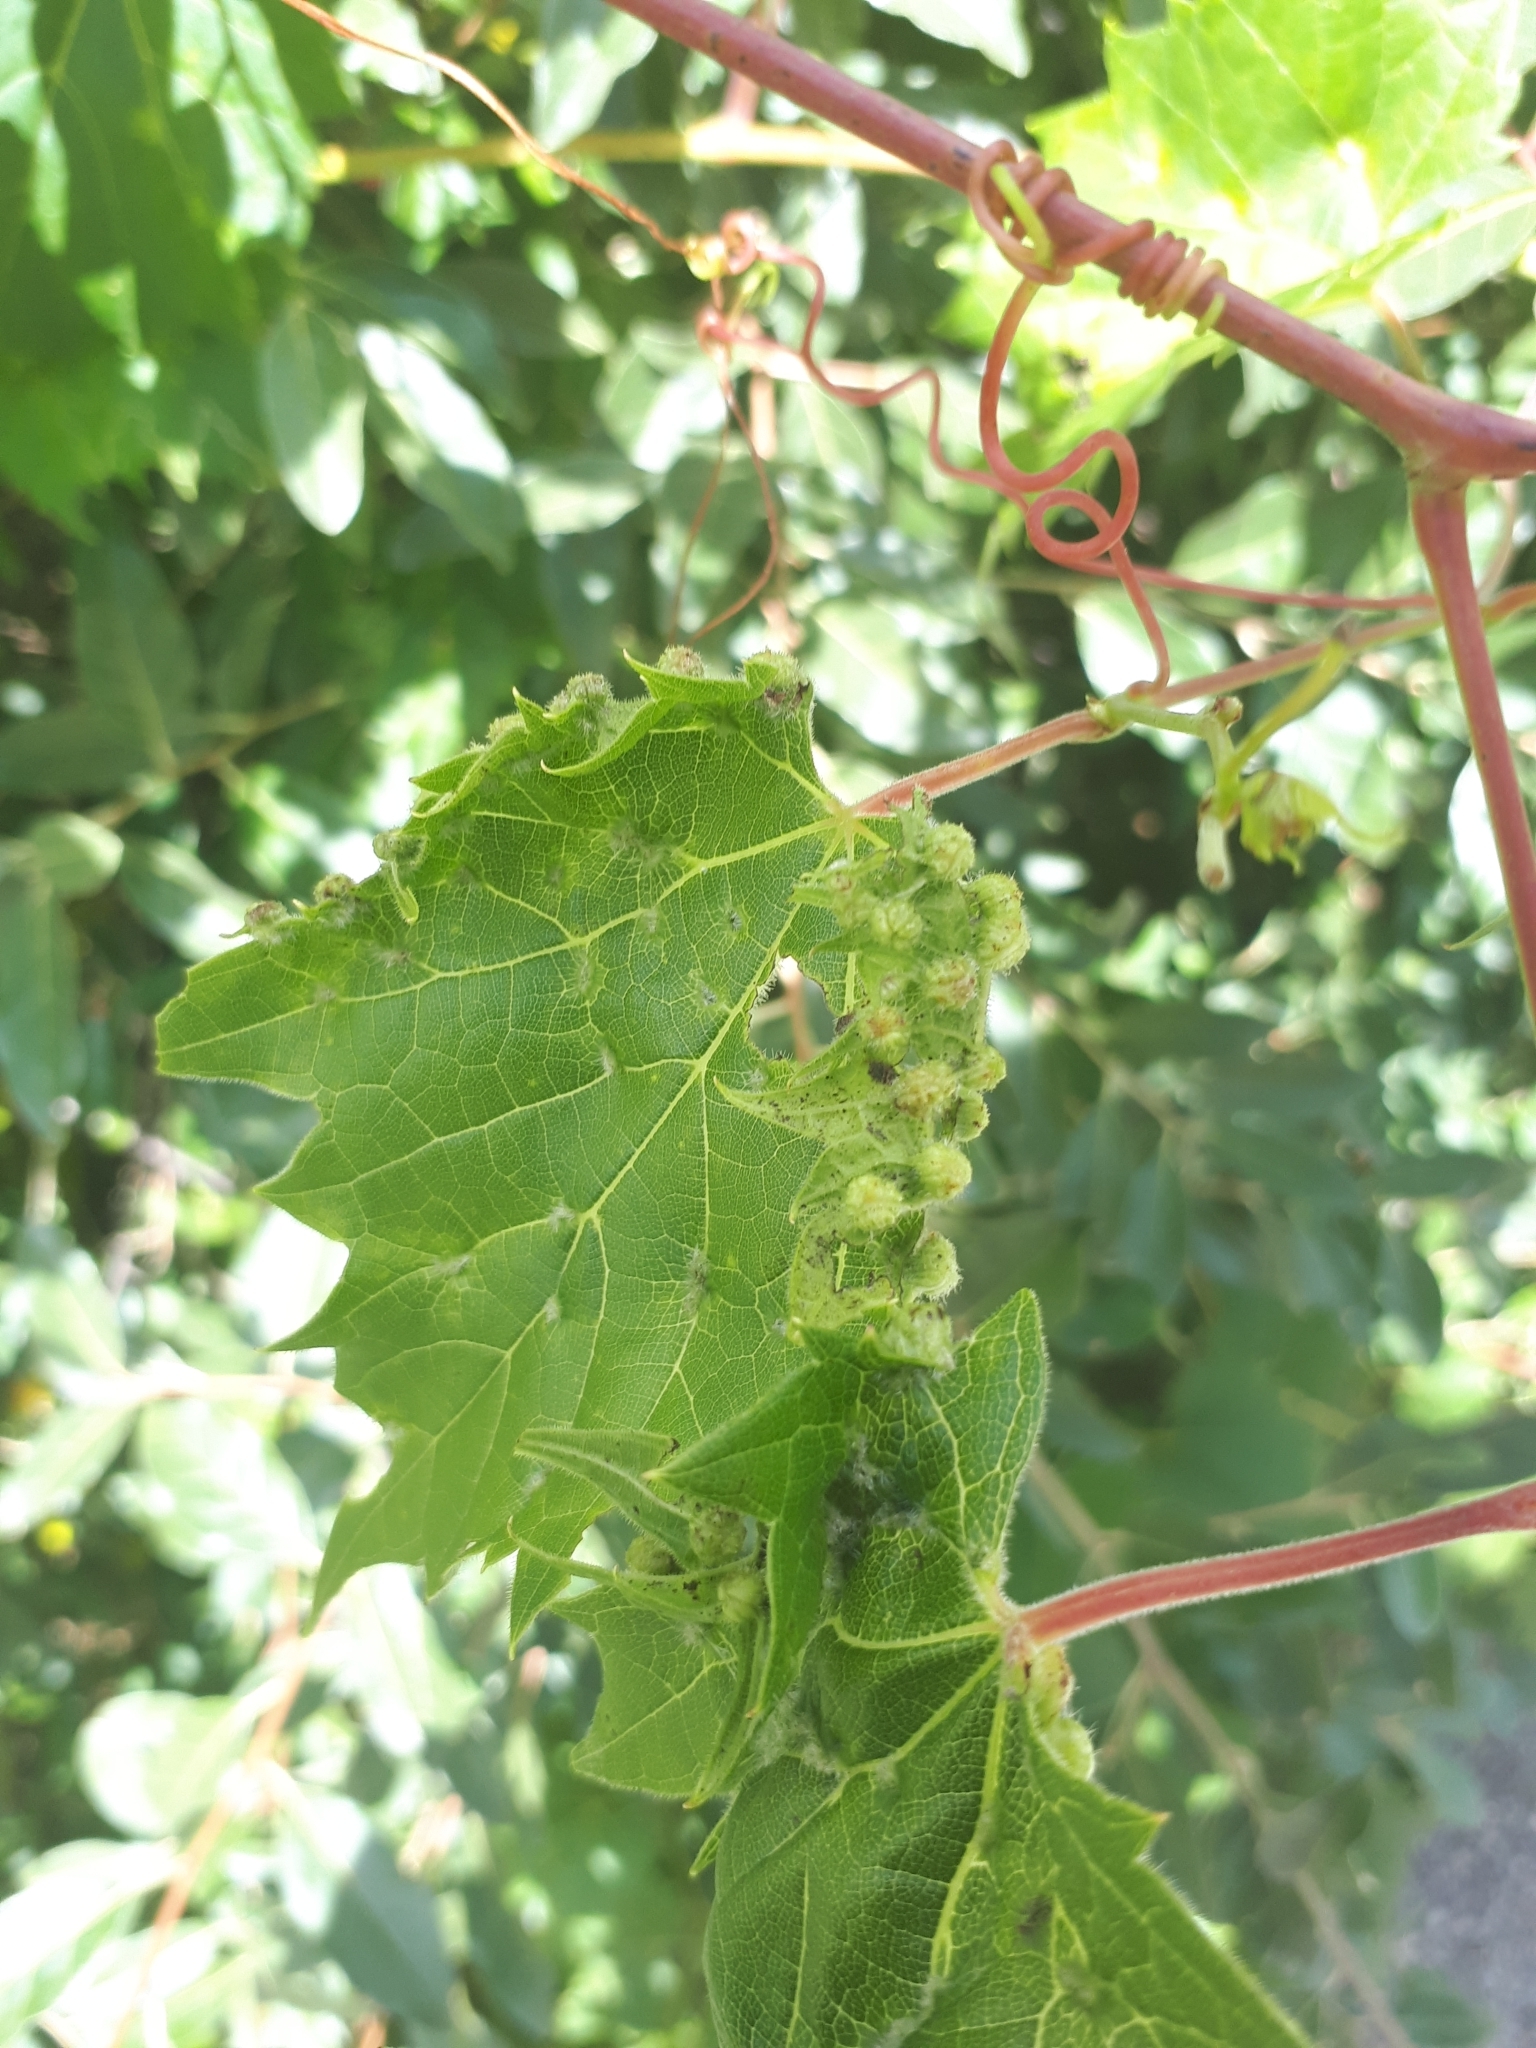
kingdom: Animalia
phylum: Arthropoda
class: Insecta
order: Hemiptera
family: Phylloxeridae
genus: Daktulosphaira
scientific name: Daktulosphaira vitifoliae
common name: Grape phylloxera
